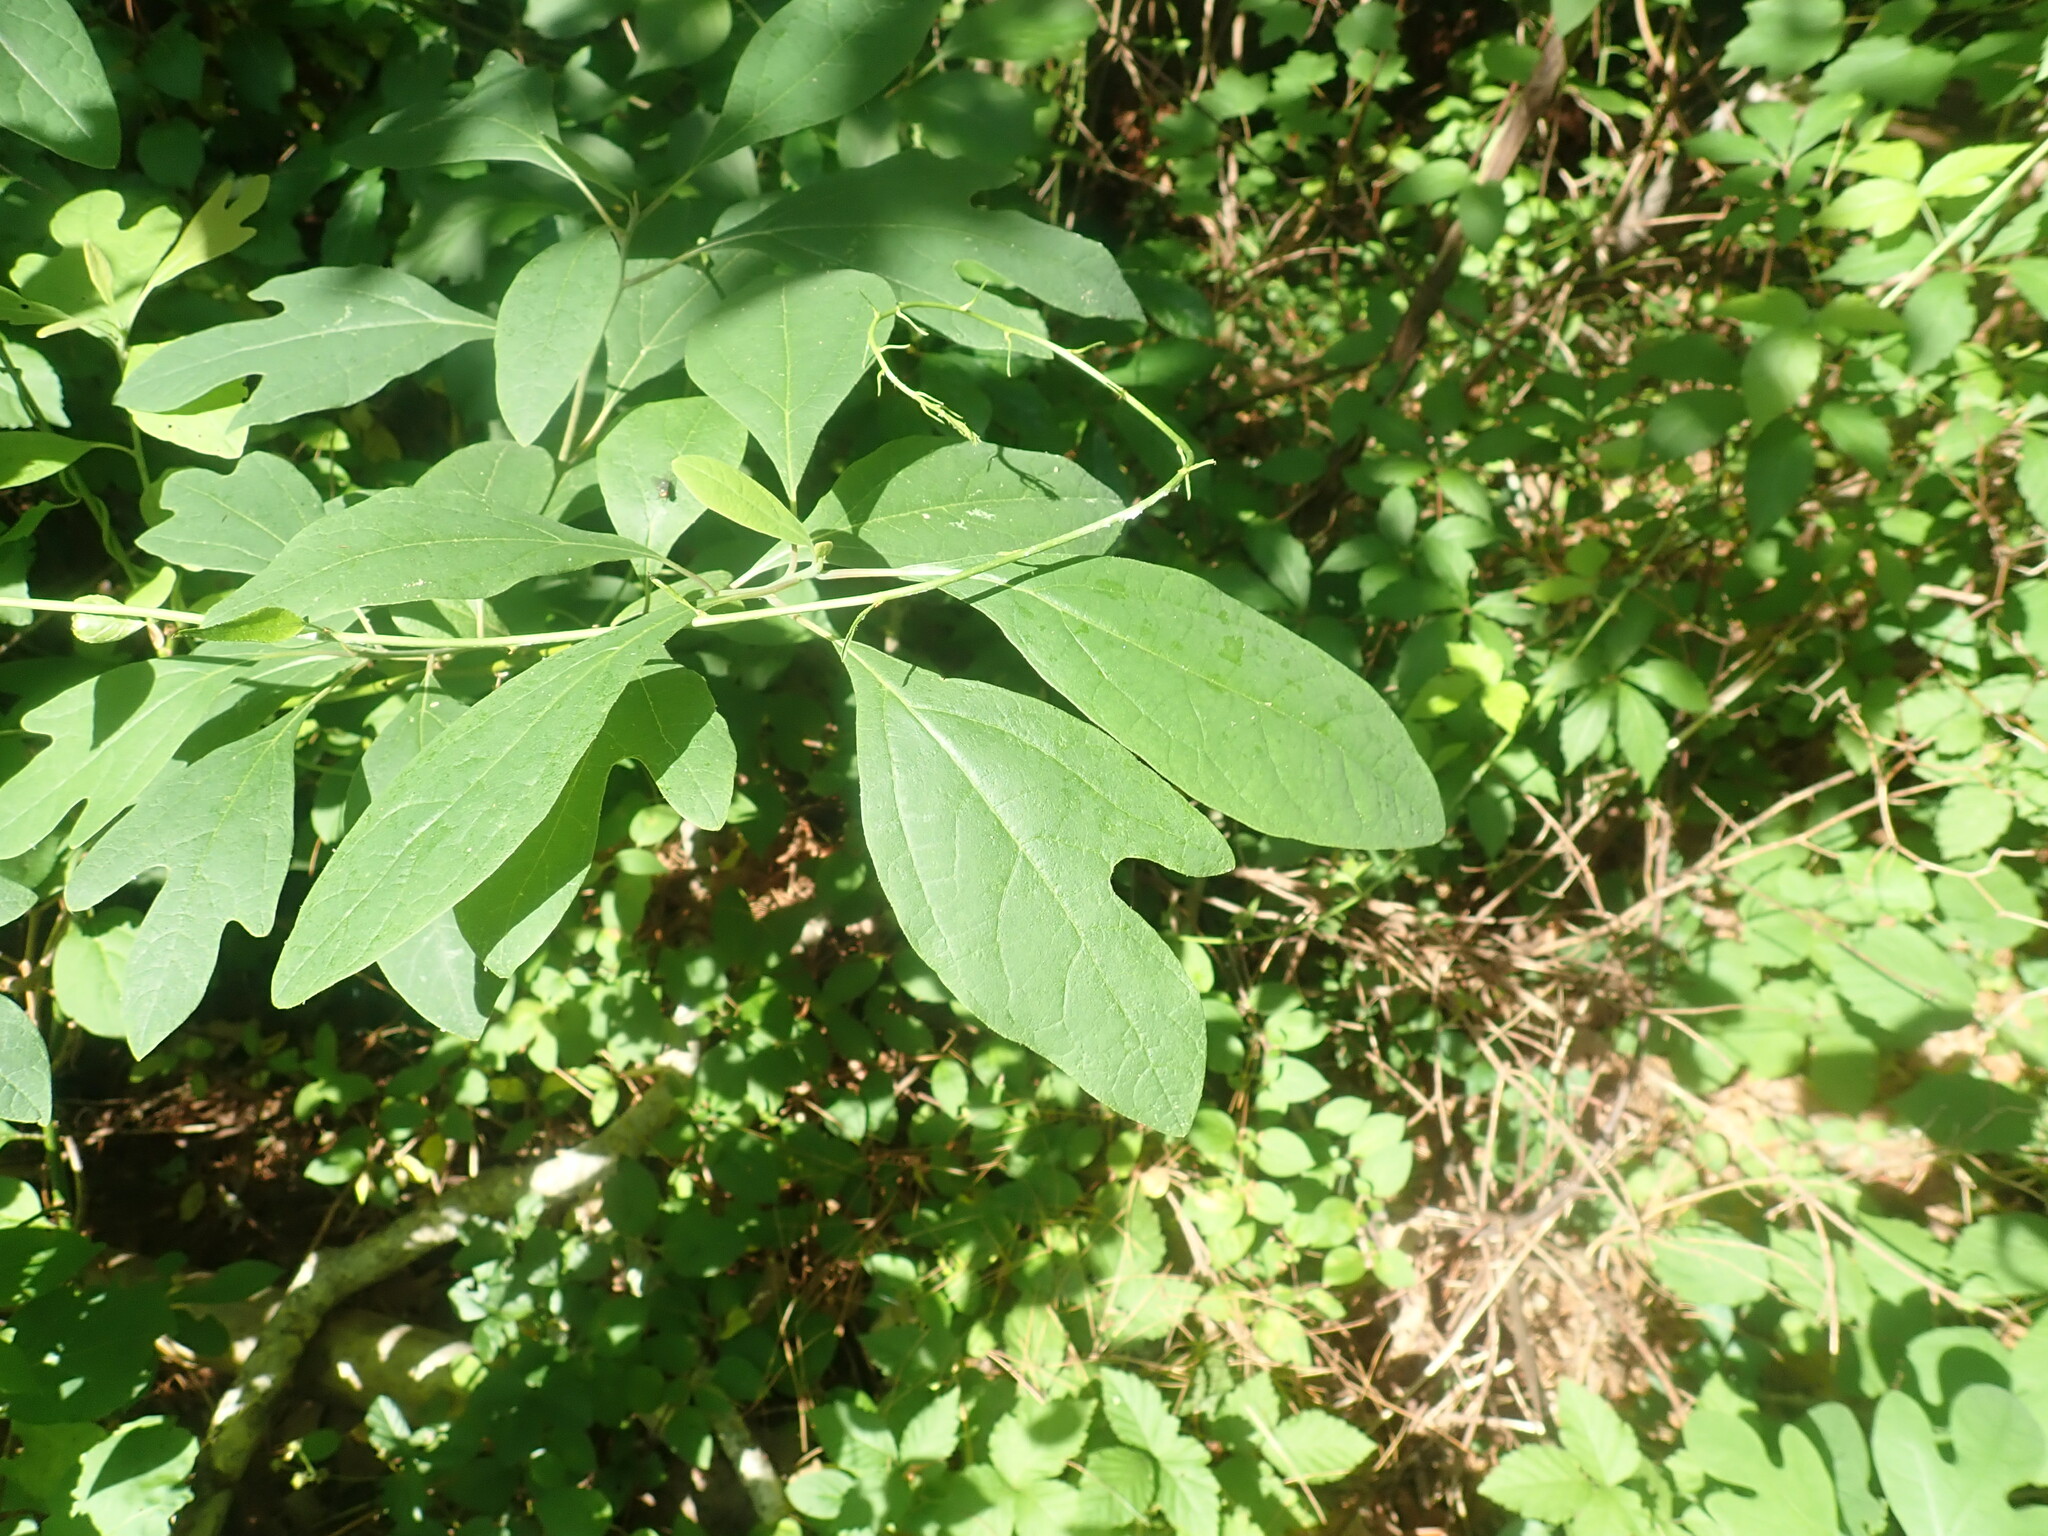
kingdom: Plantae
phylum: Tracheophyta
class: Magnoliopsida
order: Laurales
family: Lauraceae
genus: Sassafras
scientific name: Sassafras albidum
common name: Sassafras
